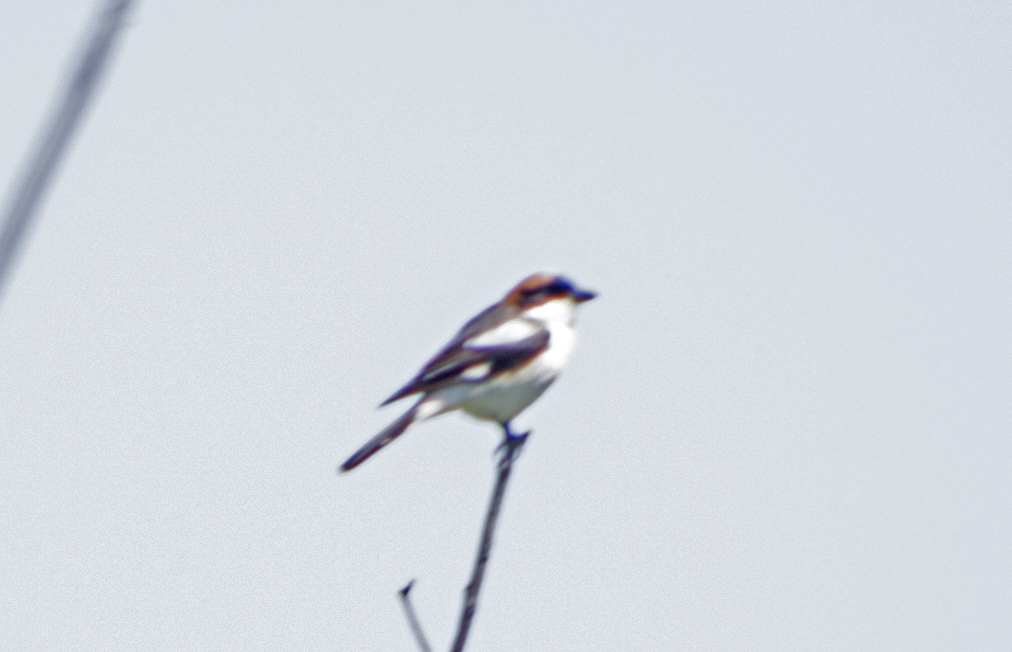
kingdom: Animalia
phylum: Chordata
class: Aves
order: Passeriformes
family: Laniidae
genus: Lanius
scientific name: Lanius senator
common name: Woodchat shrike
